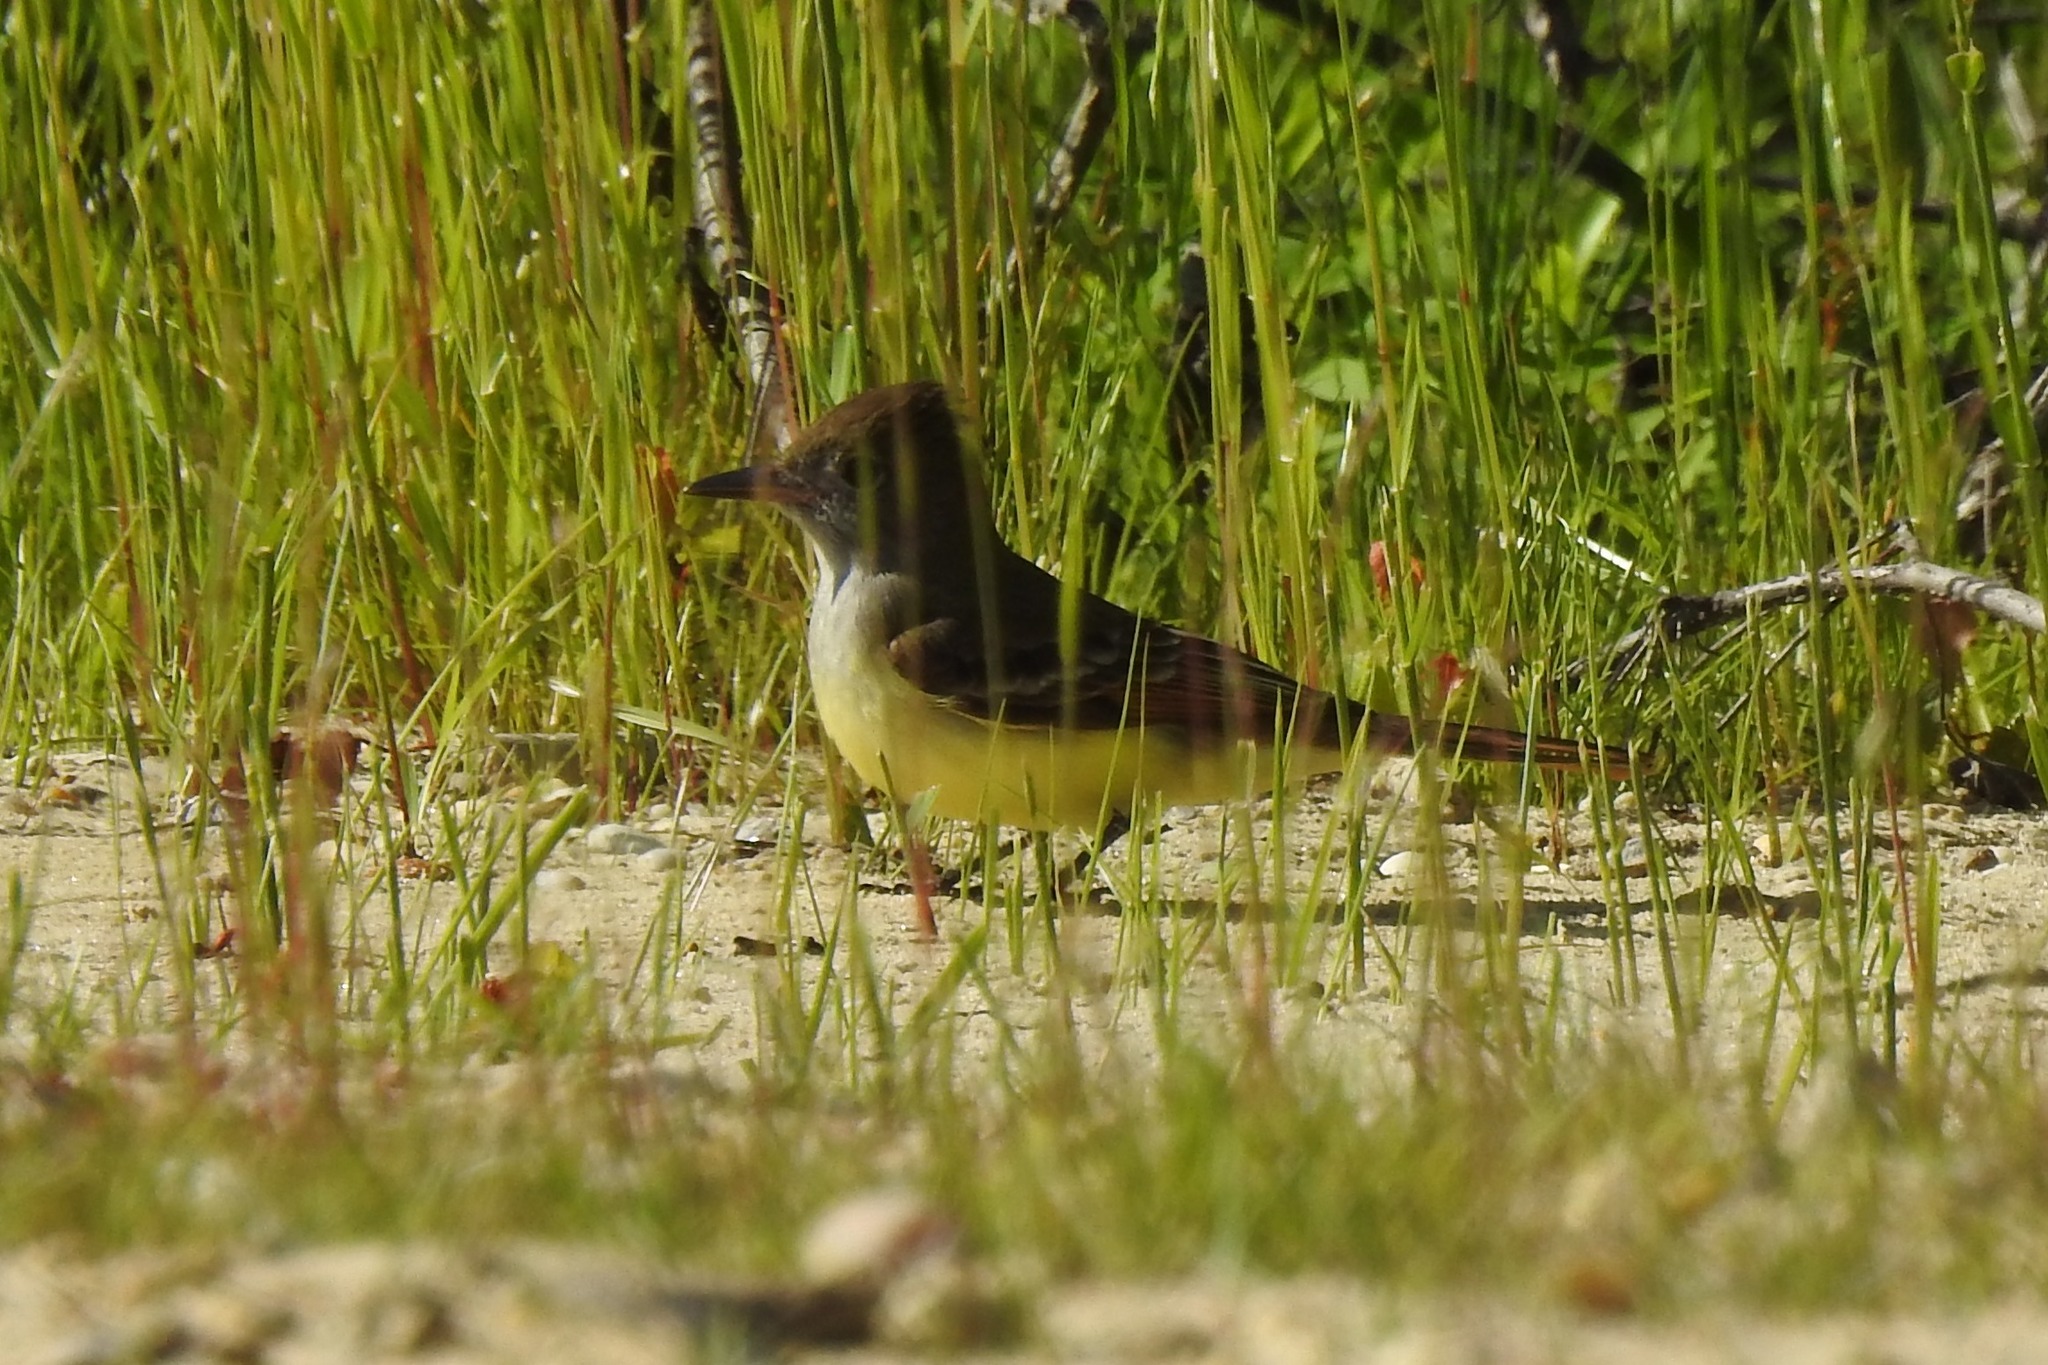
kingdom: Animalia
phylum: Chordata
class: Aves
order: Passeriformes
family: Tyrannidae
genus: Myiarchus
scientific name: Myiarchus crinitus
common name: Great crested flycatcher
